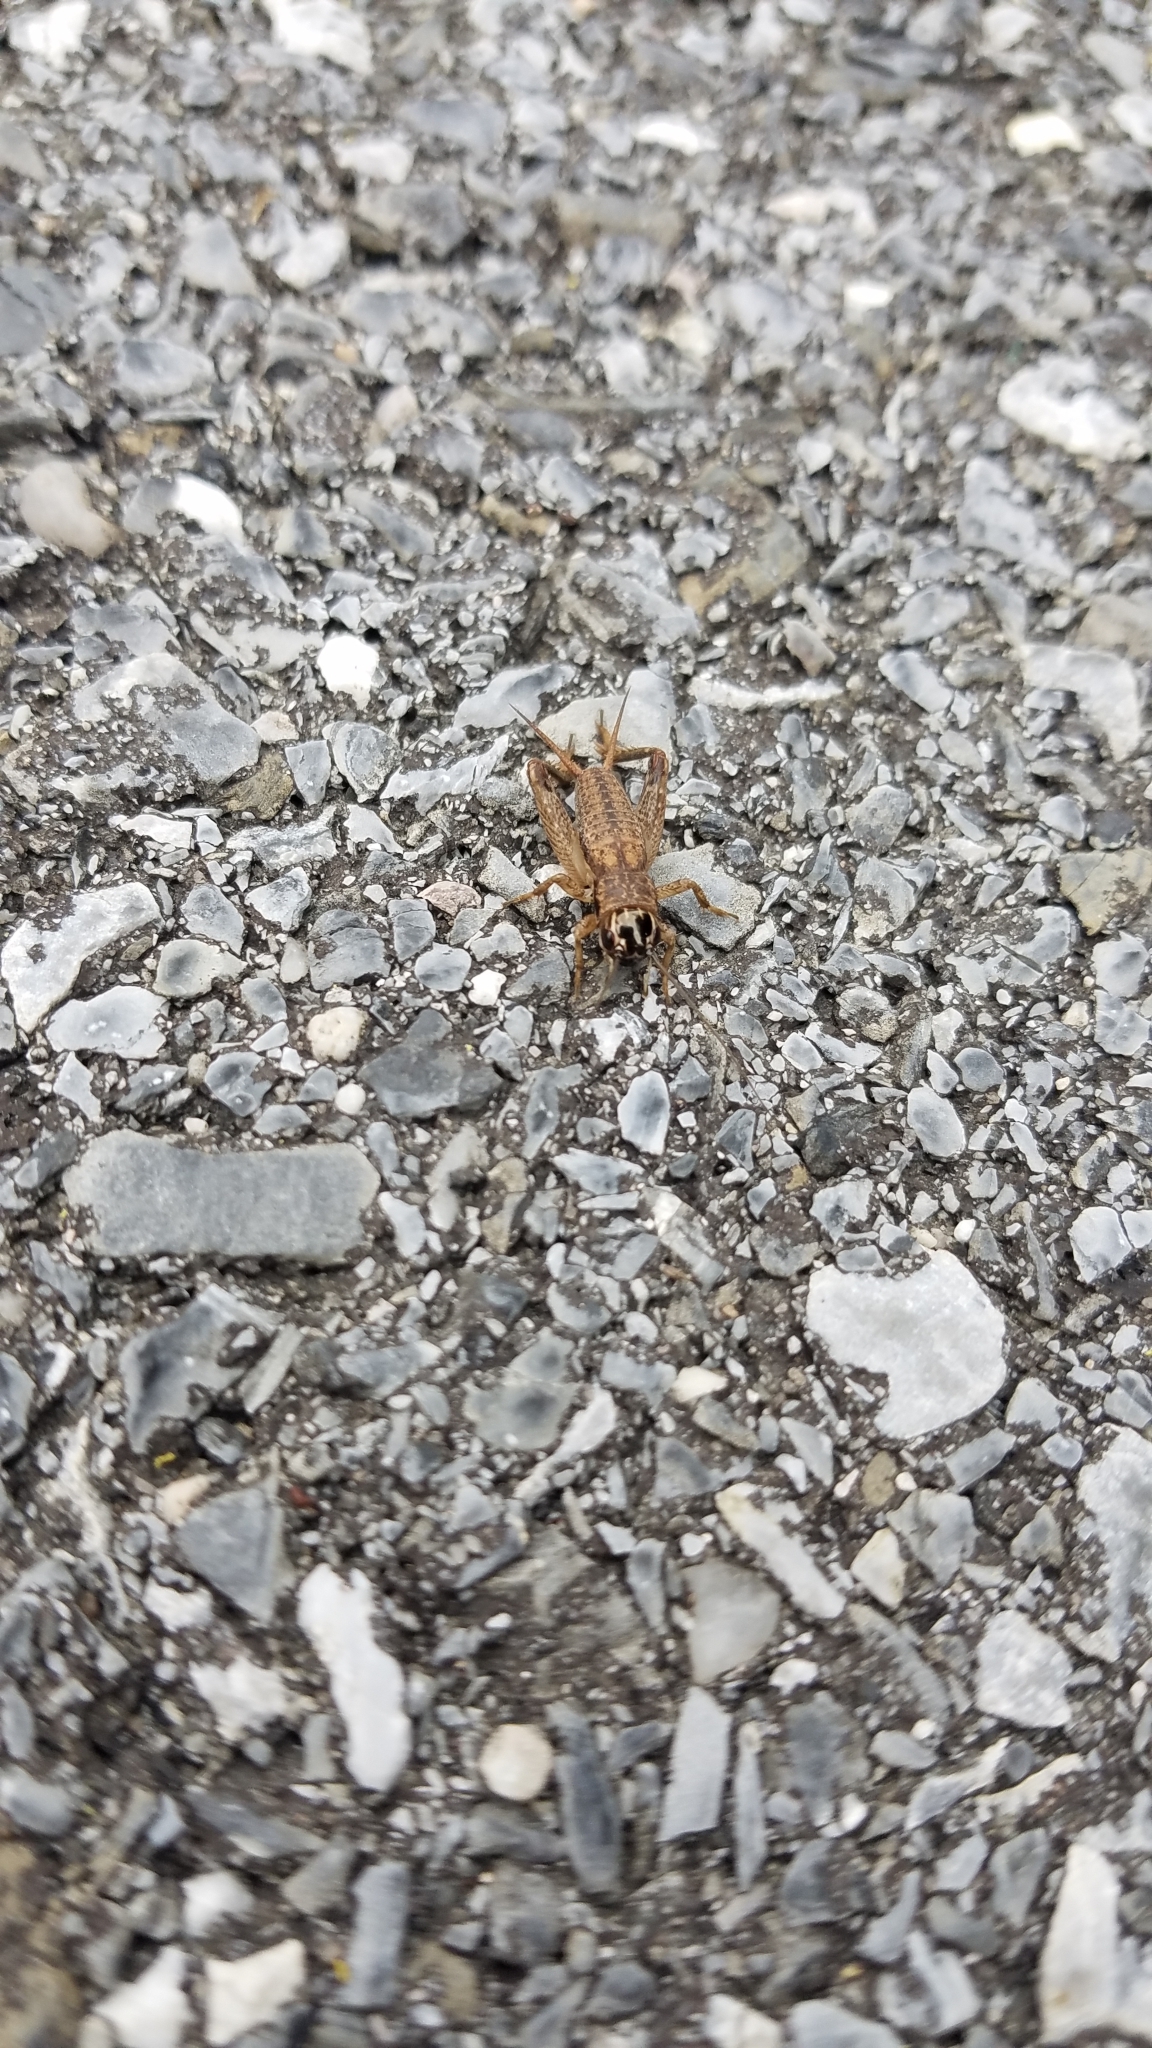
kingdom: Animalia
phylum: Arthropoda
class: Insecta
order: Orthoptera
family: Gryllidae
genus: Miogryllus
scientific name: Miogryllus verticalis
